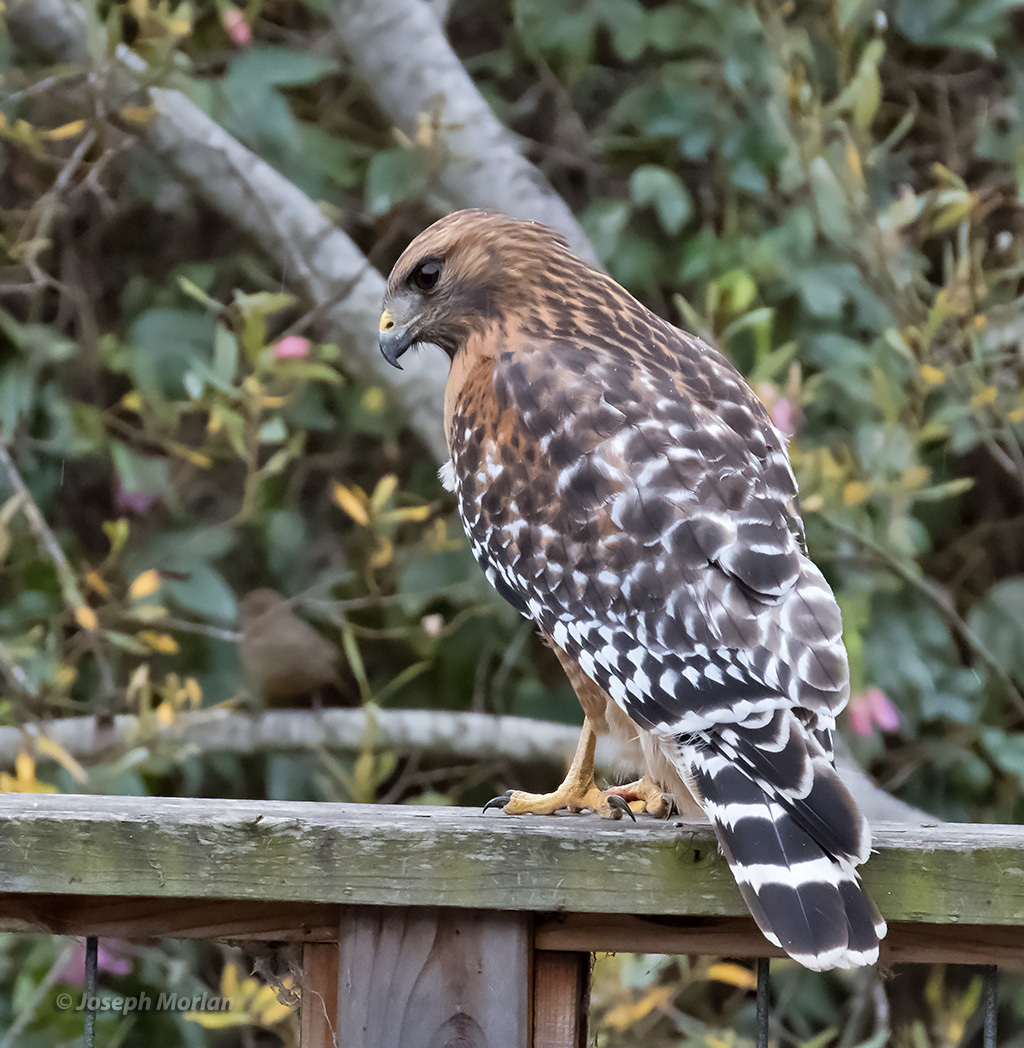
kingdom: Animalia
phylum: Chordata
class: Aves
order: Accipitriformes
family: Accipitridae
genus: Buteo
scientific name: Buteo lineatus
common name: Red-shouldered hawk
